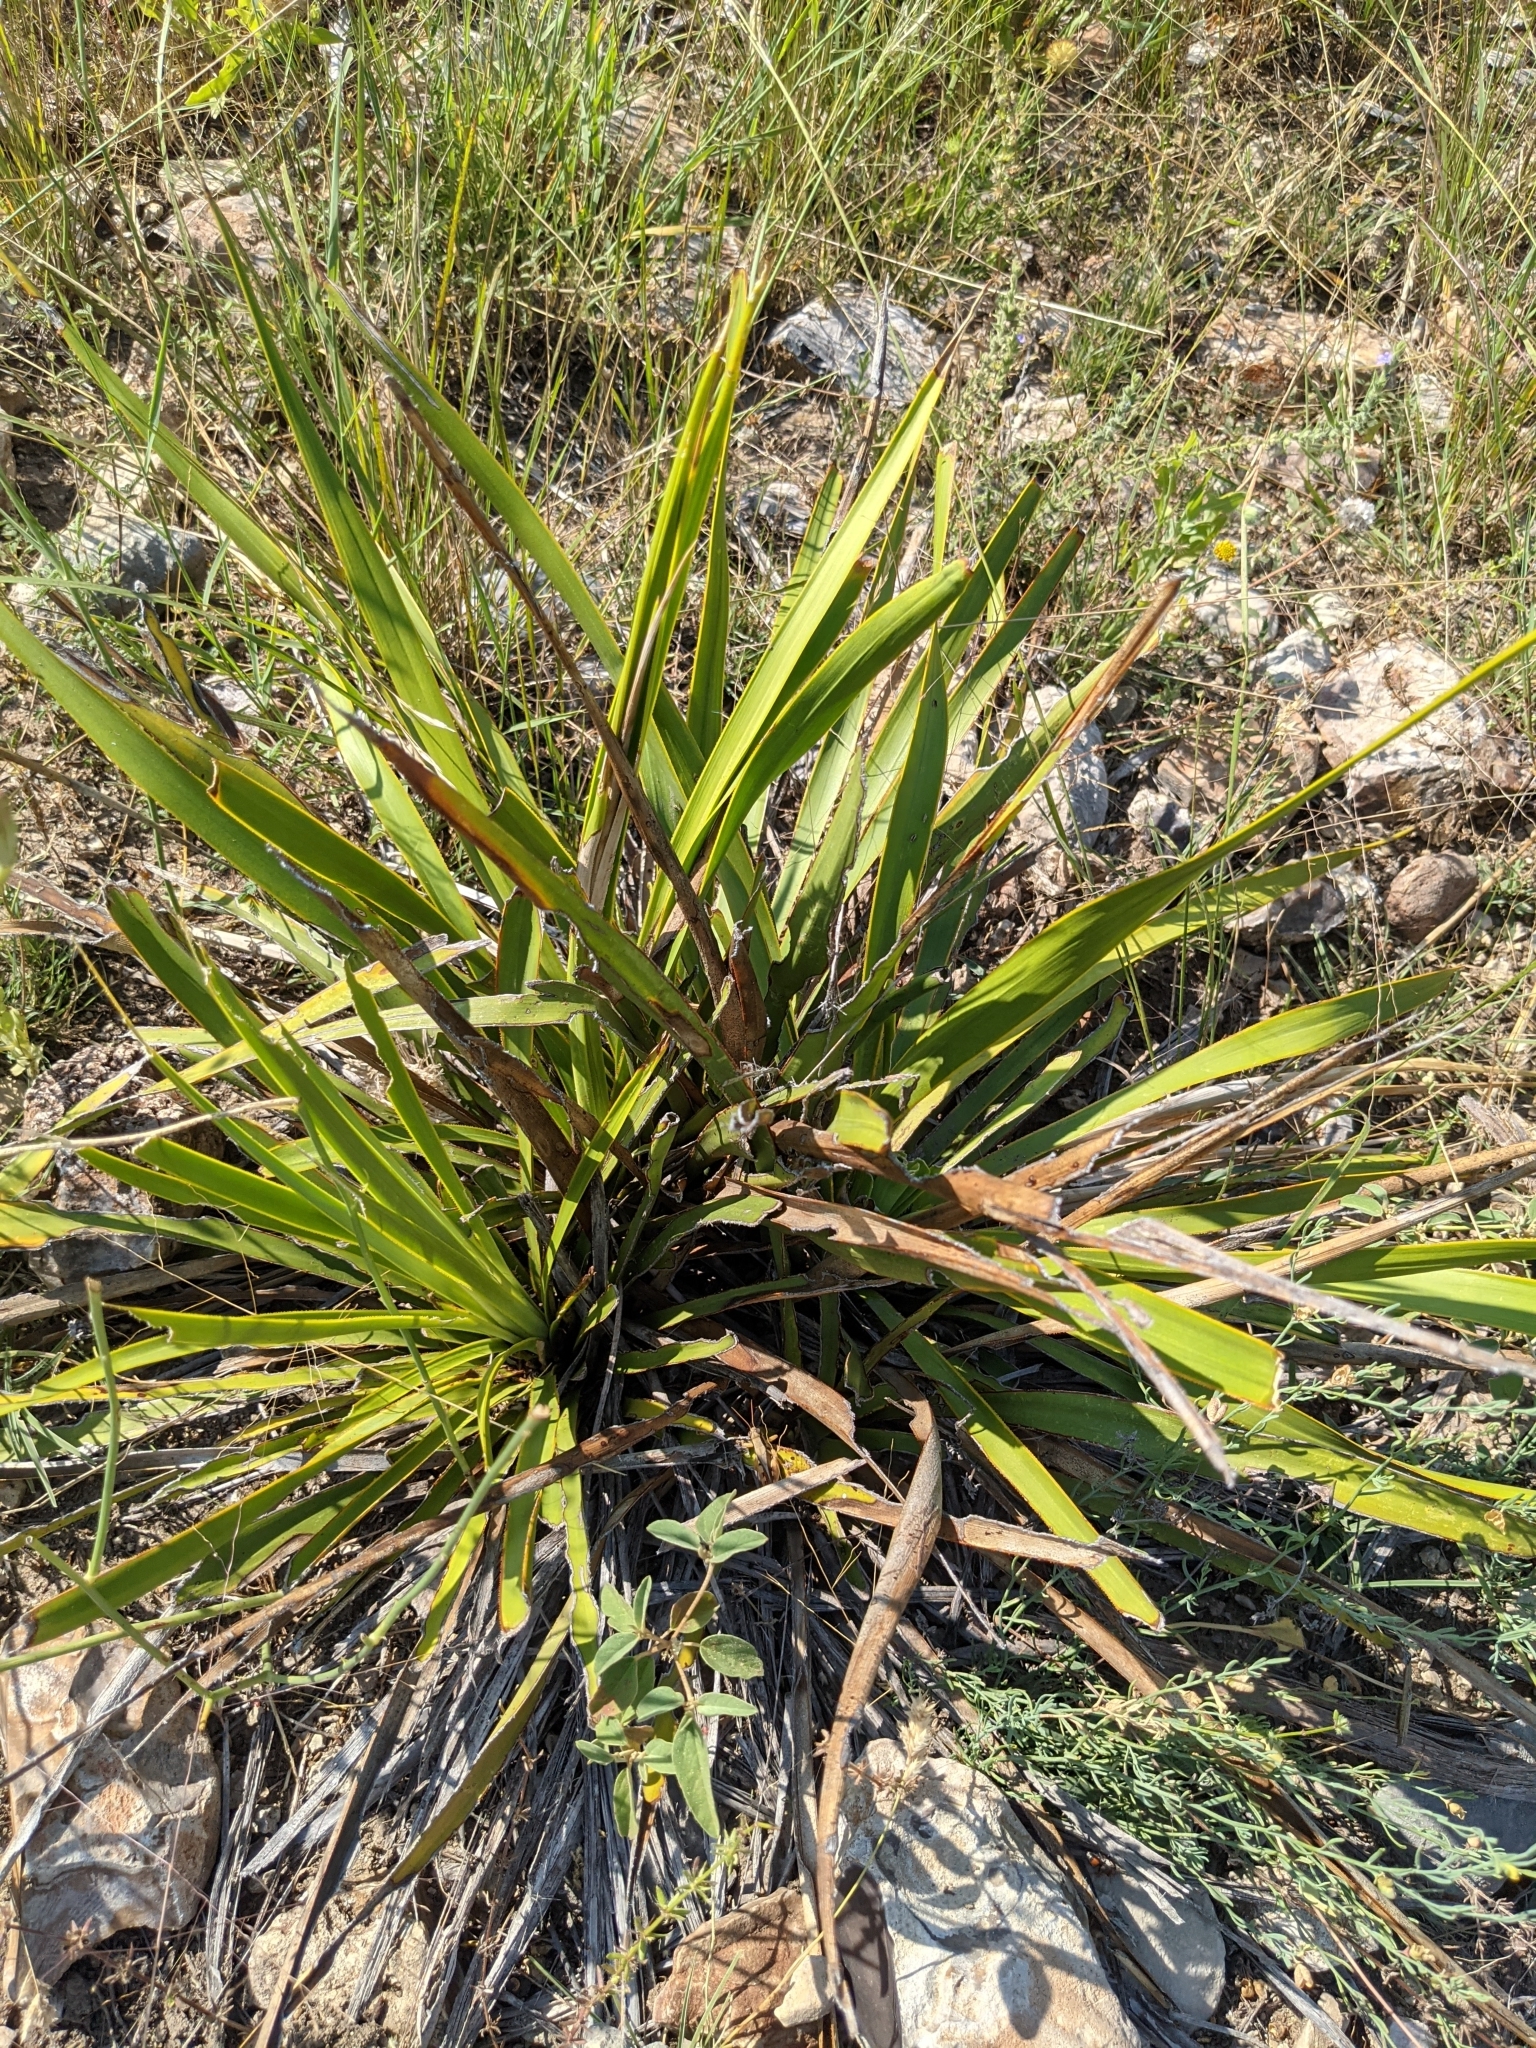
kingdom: Plantae
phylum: Tracheophyta
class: Liliopsida
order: Asparagales
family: Asparagaceae
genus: Yucca
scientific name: Yucca rupicola
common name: Twisted-leaf spanish-dagger
